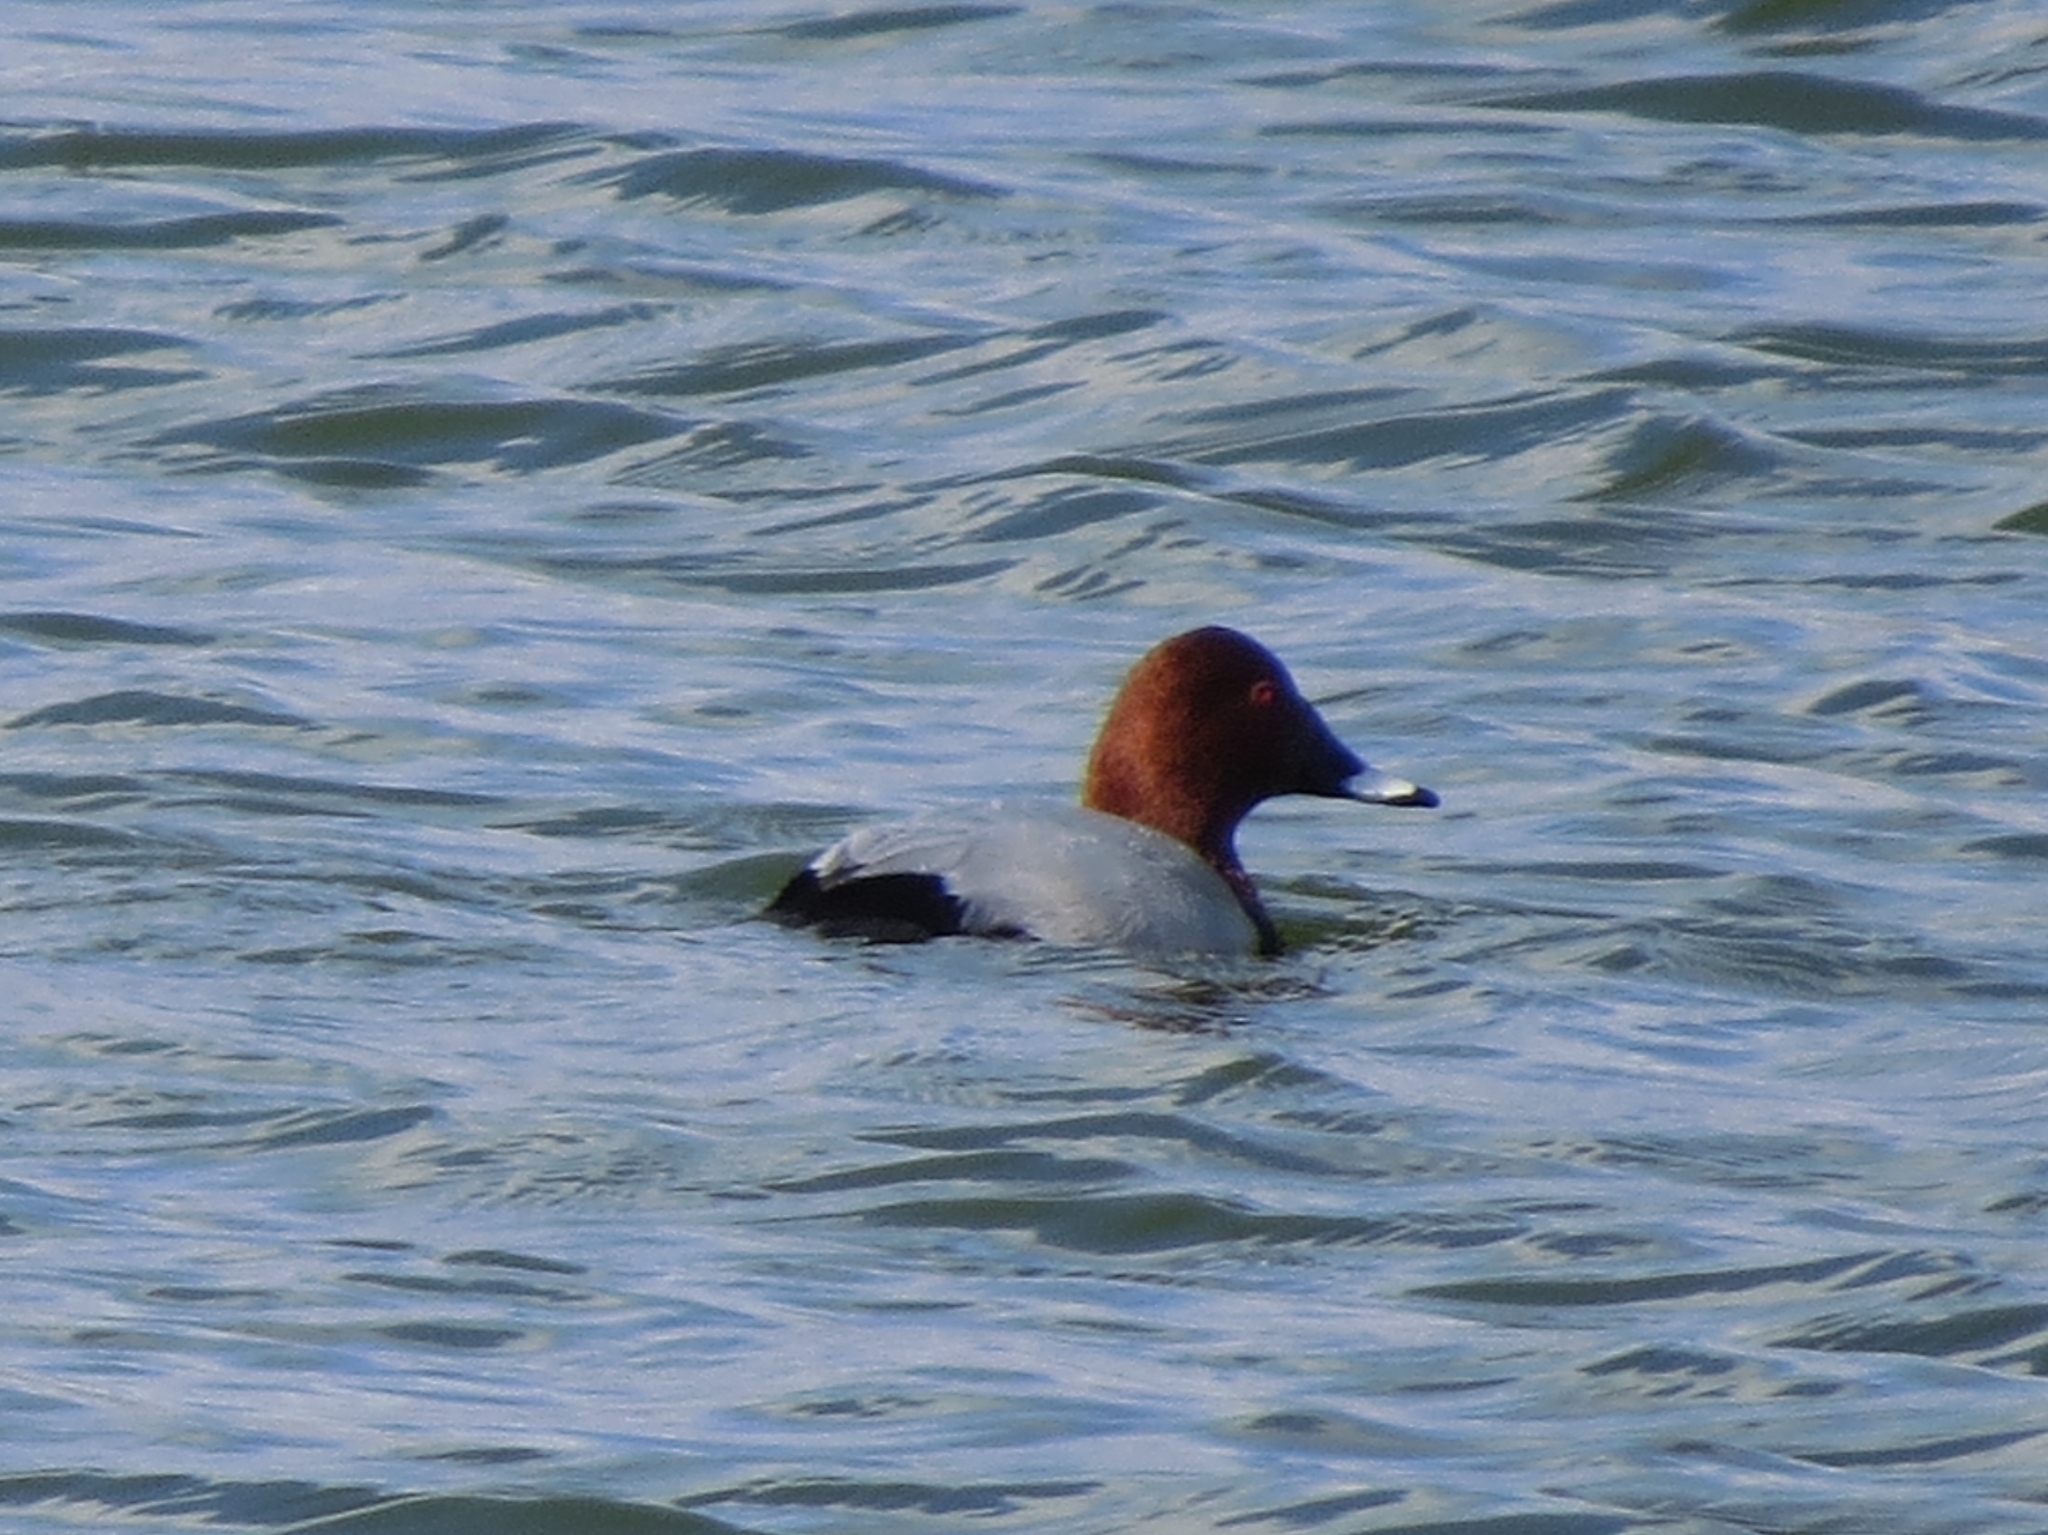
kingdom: Animalia
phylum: Chordata
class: Aves
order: Anseriformes
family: Anatidae
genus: Aythya
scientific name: Aythya ferina
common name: Common pochard
